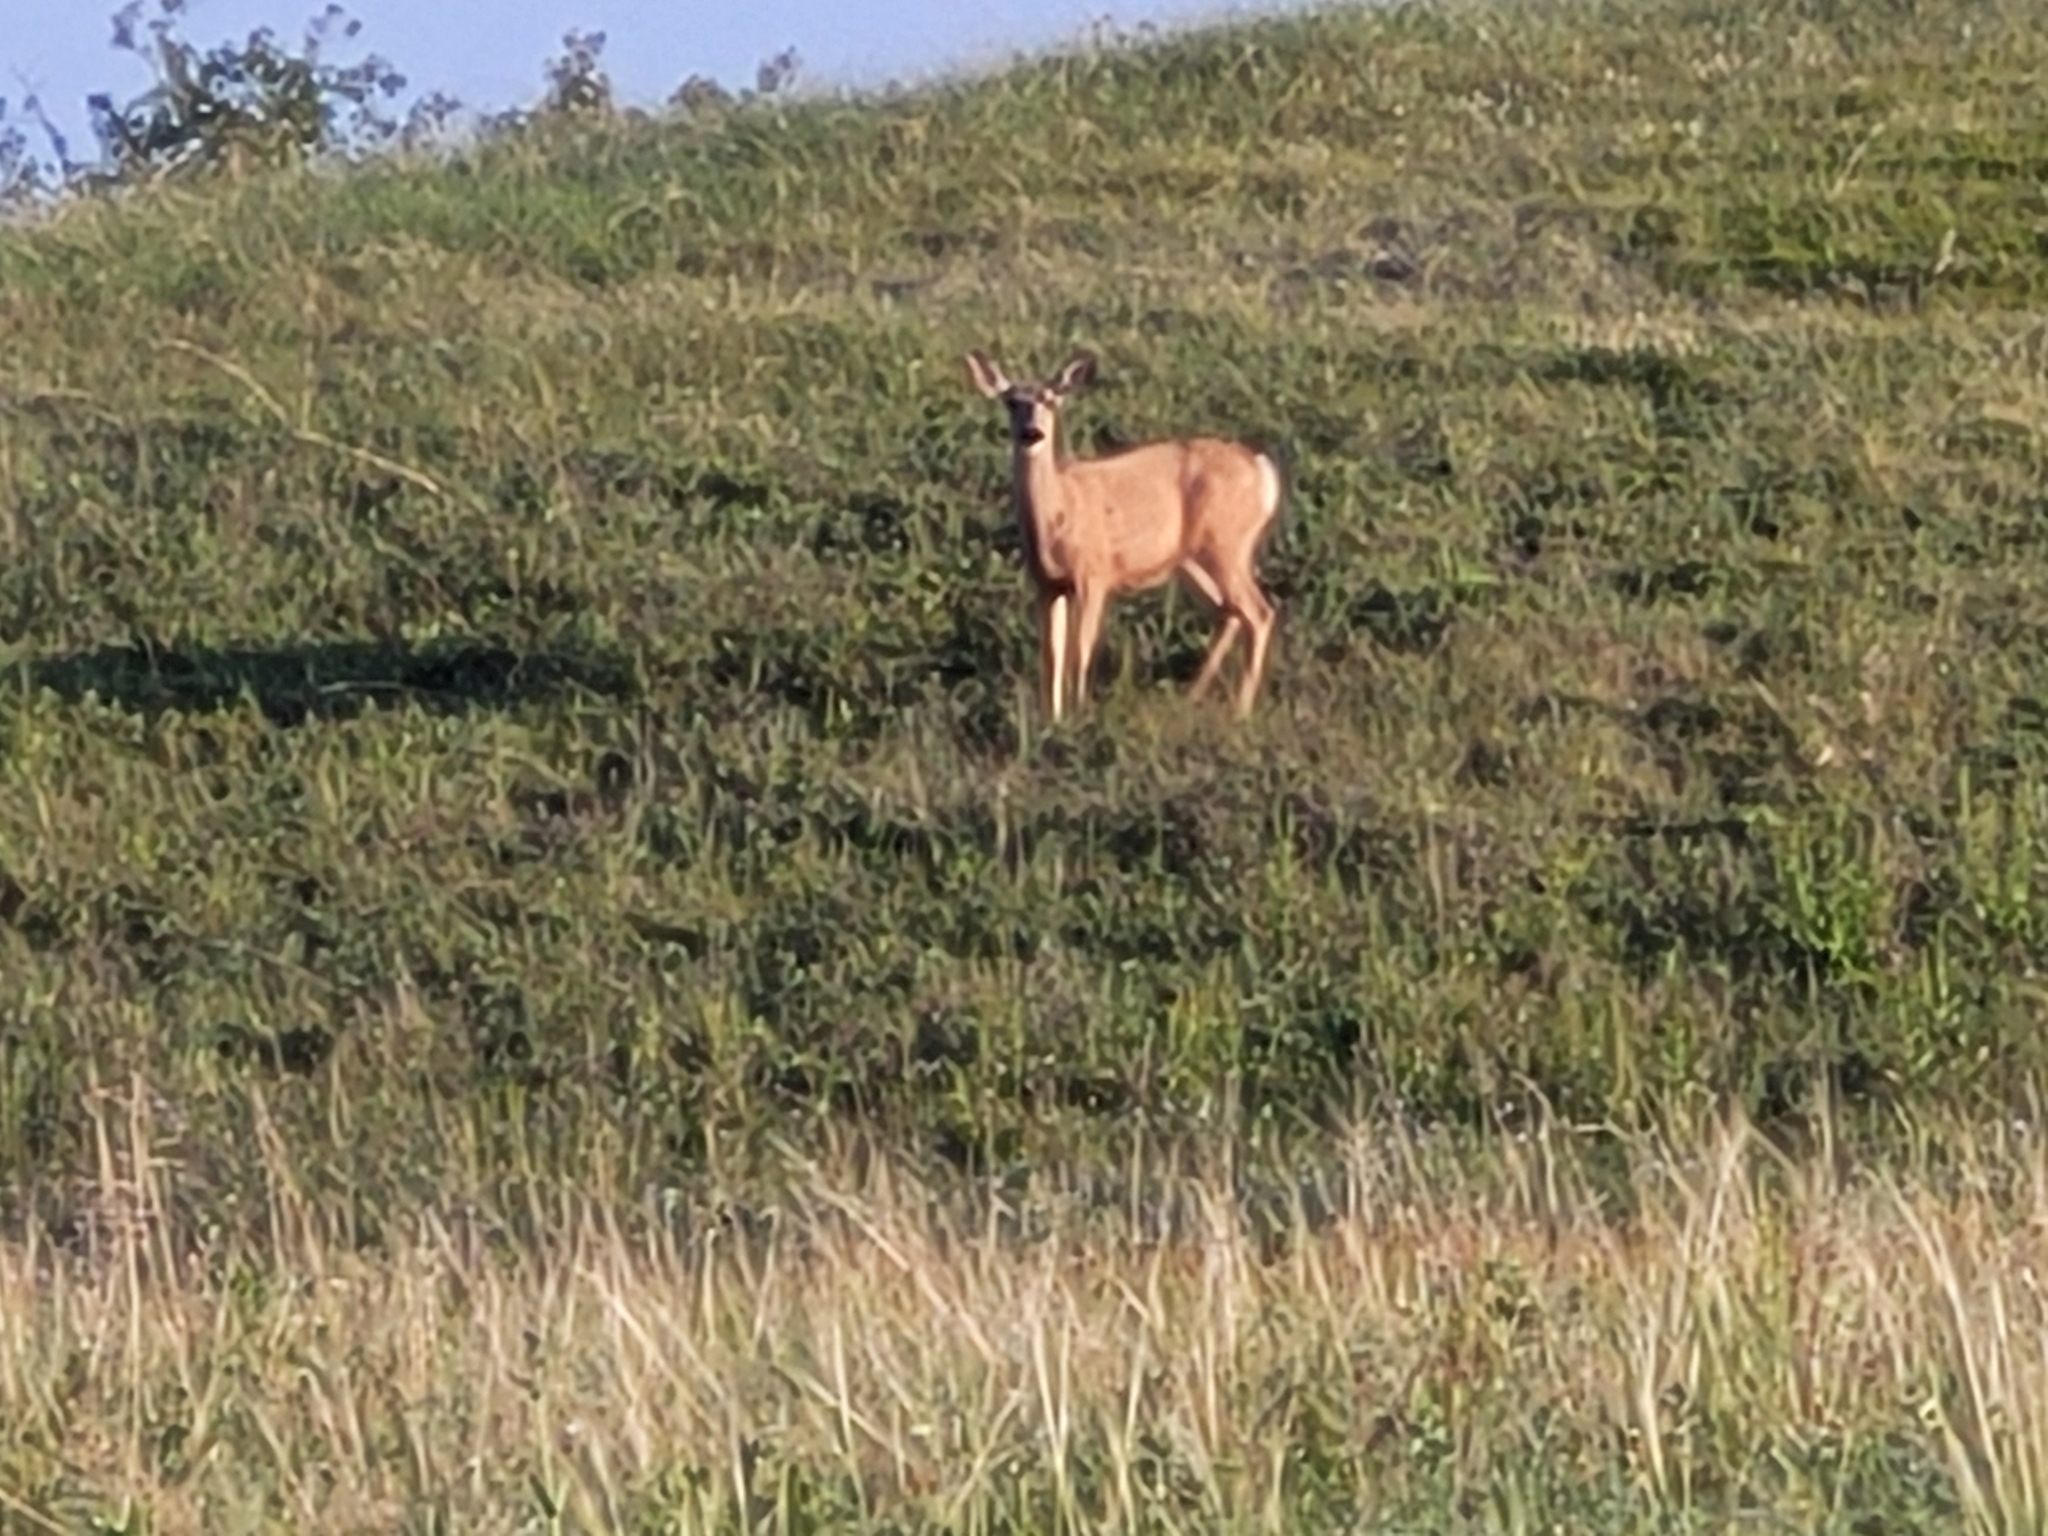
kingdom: Animalia
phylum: Chordata
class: Mammalia
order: Artiodactyla
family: Cervidae
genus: Odocoileus
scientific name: Odocoileus hemionus
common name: Mule deer
